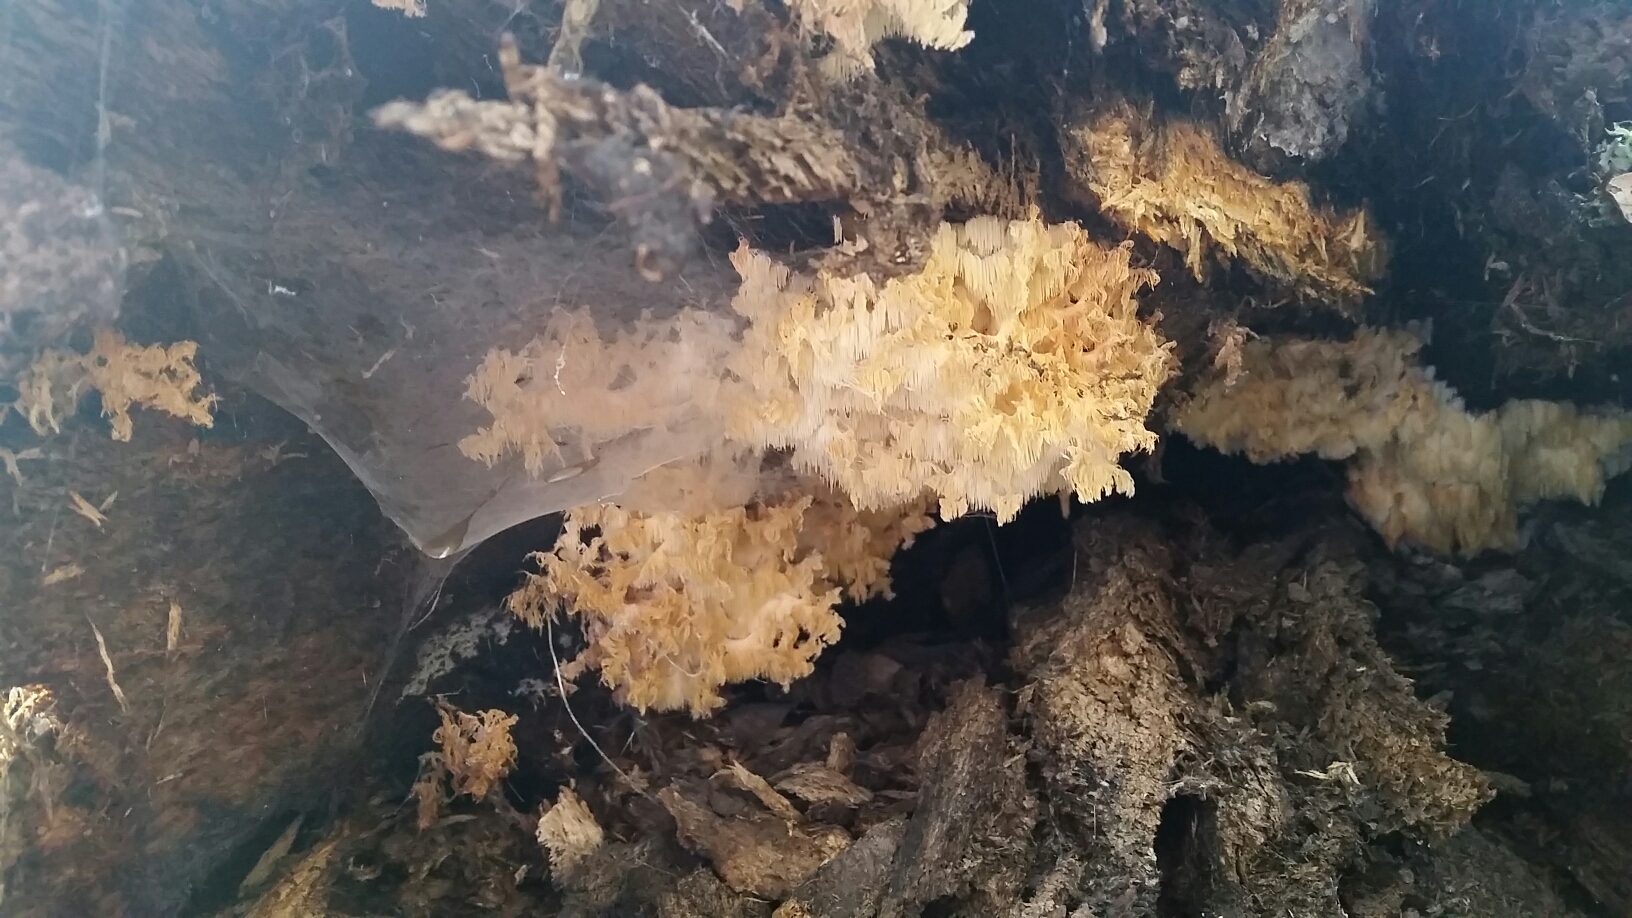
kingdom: Fungi
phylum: Basidiomycota
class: Agaricomycetes
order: Russulales
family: Hericiaceae
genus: Hericium
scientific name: Hericium coralloides
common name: Coral tooth
